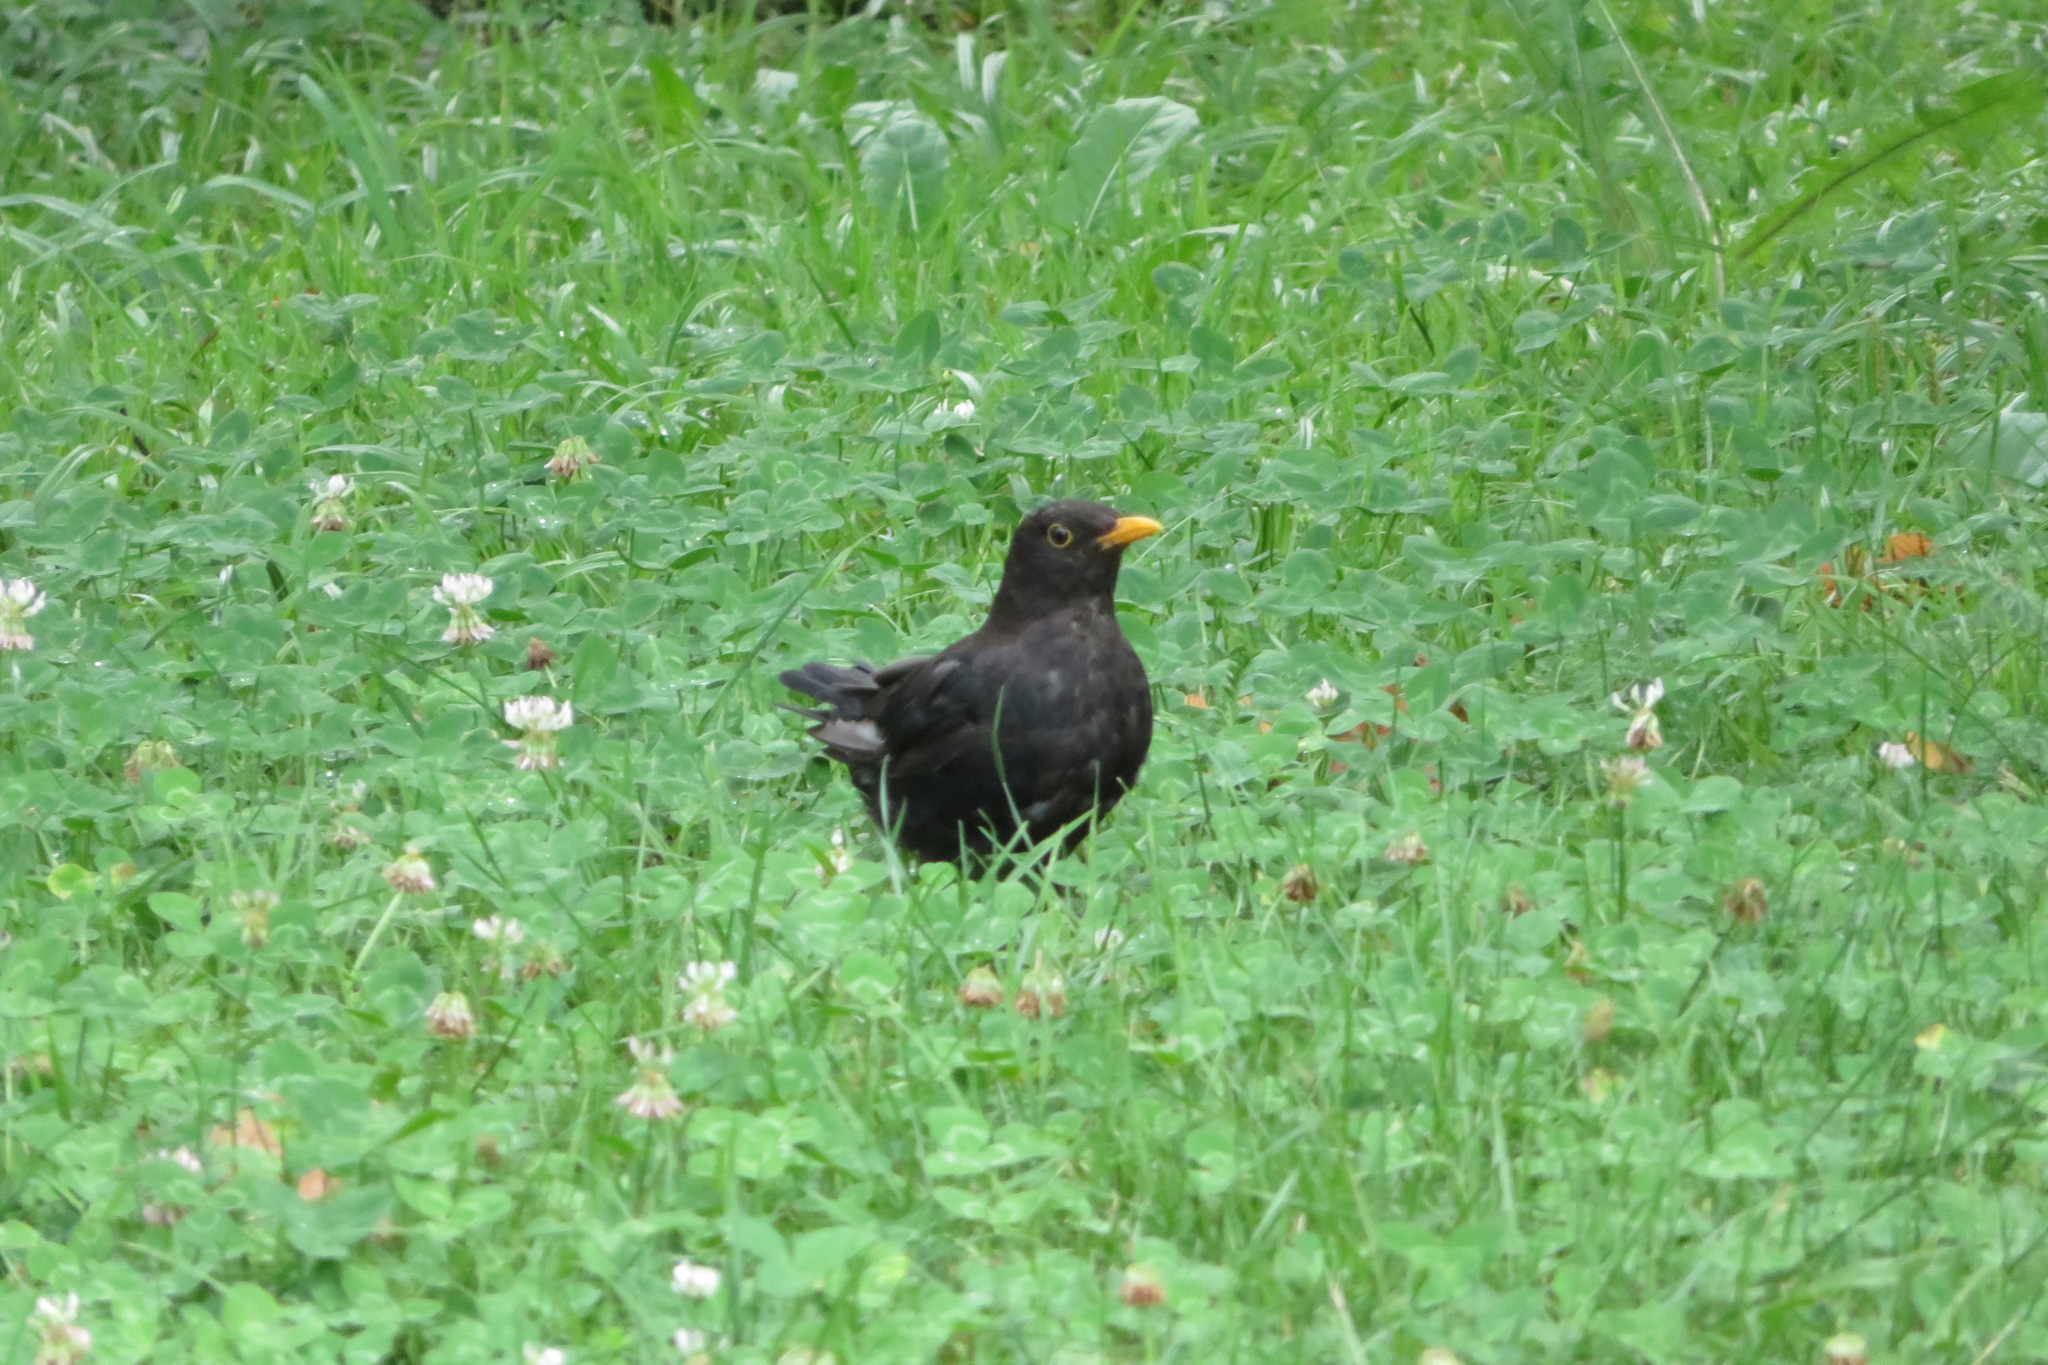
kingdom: Animalia
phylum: Chordata
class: Aves
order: Passeriformes
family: Turdidae
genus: Turdus
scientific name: Turdus merula
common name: Common blackbird
